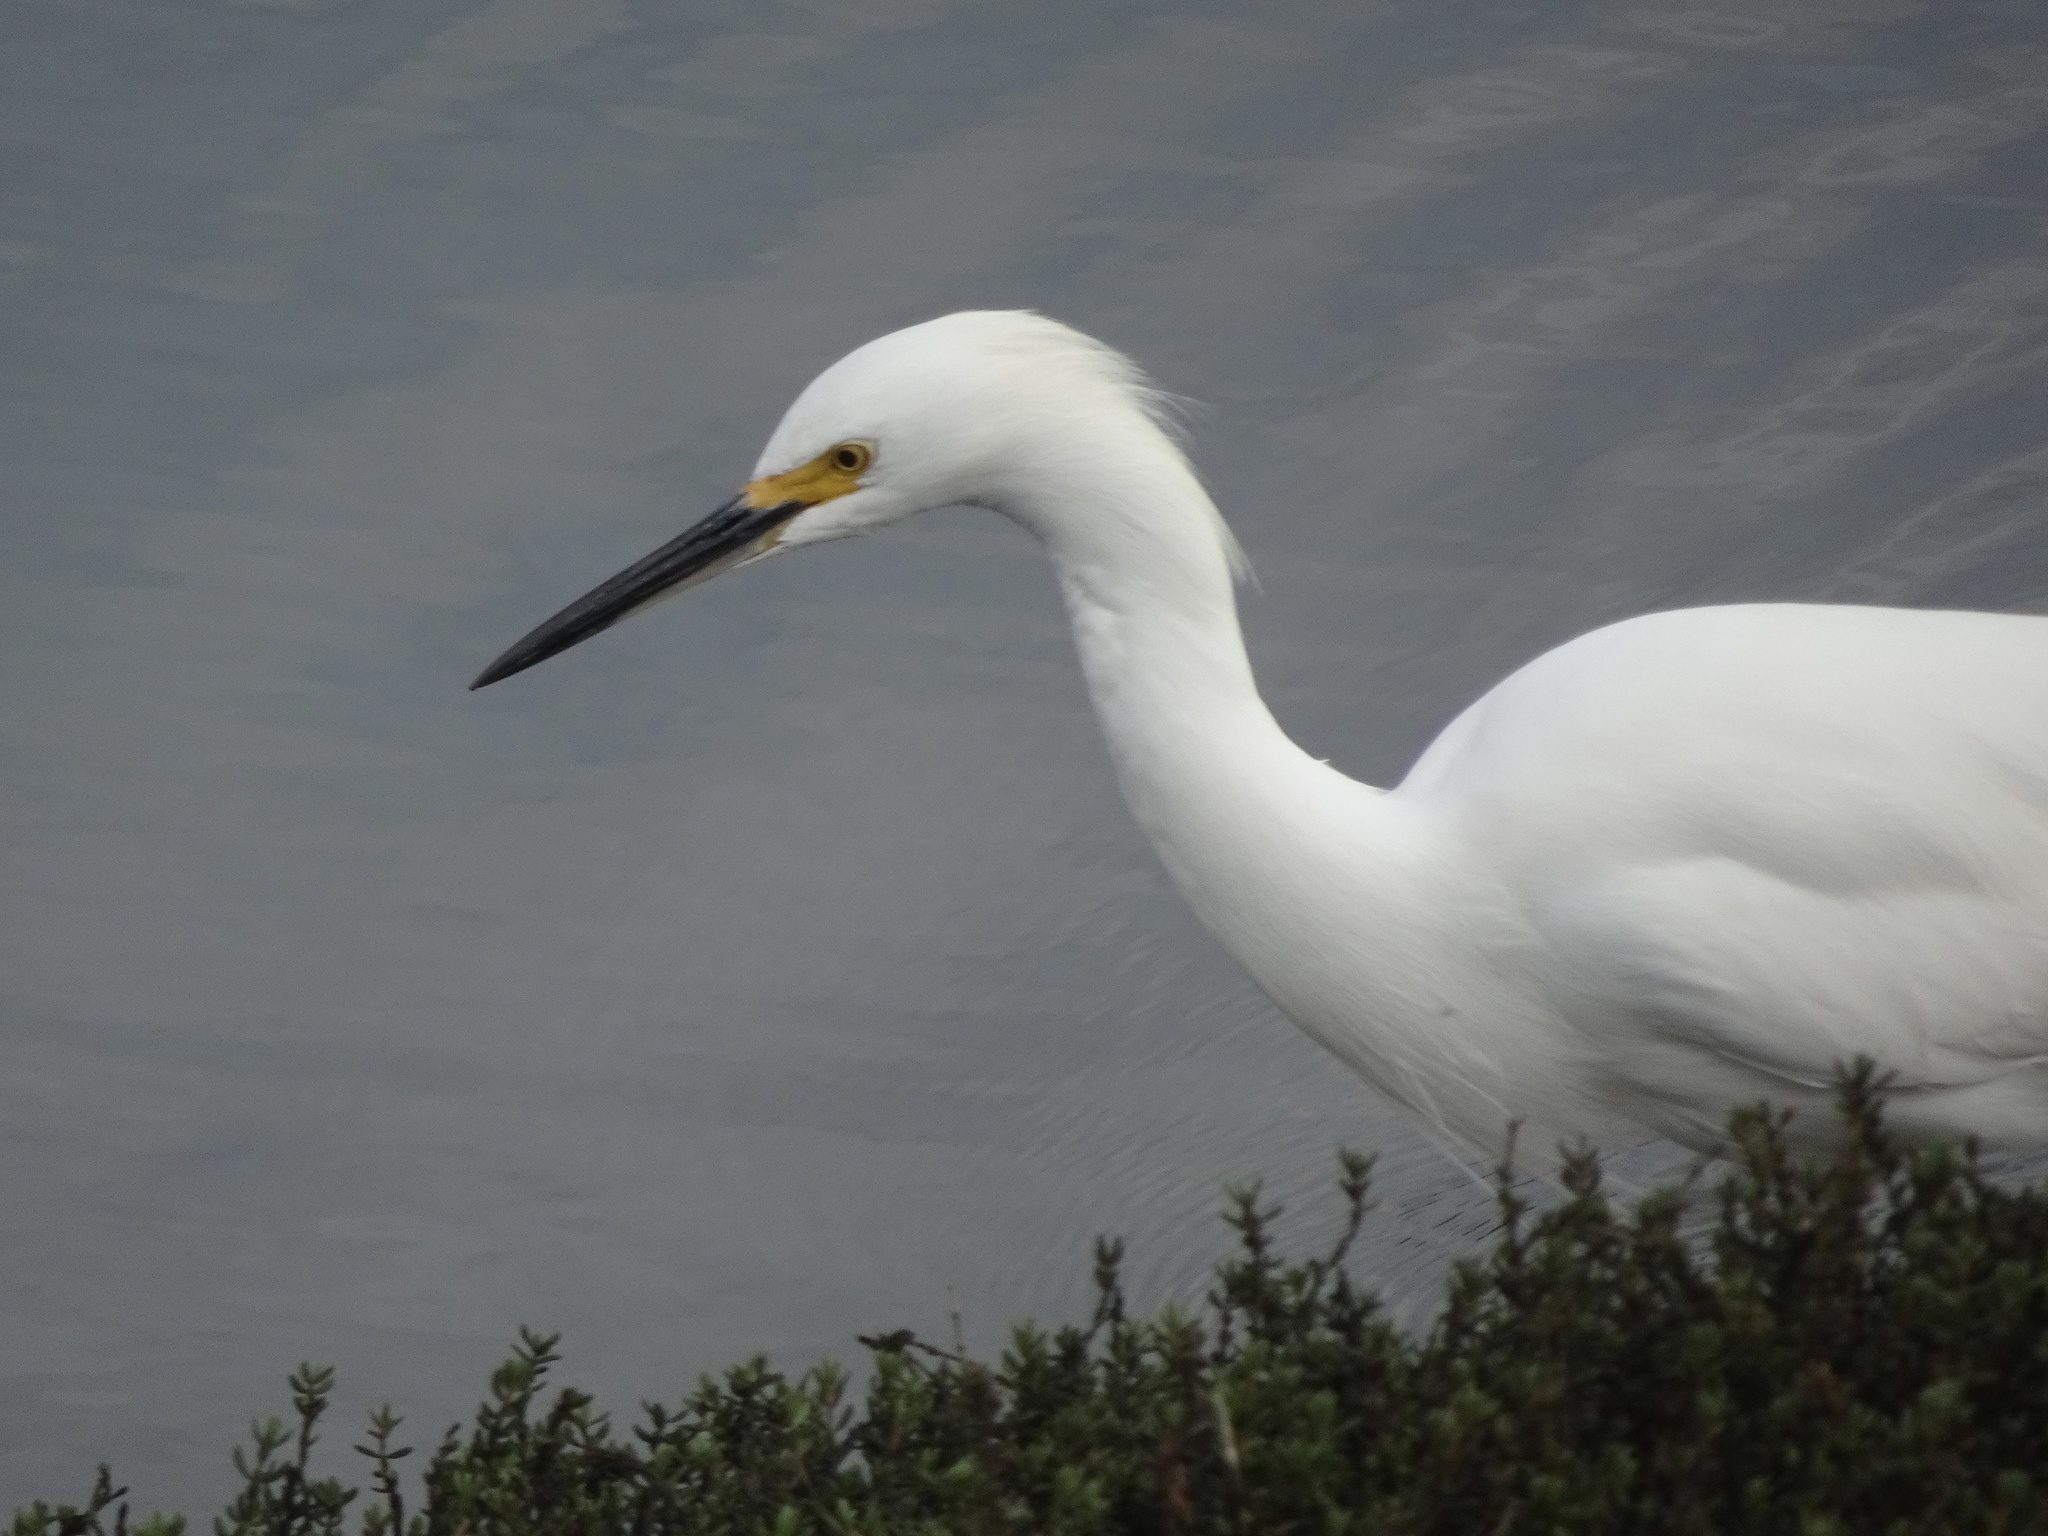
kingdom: Animalia
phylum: Chordata
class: Aves
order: Pelecaniformes
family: Ardeidae
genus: Egretta
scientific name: Egretta thula
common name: Snowy egret
